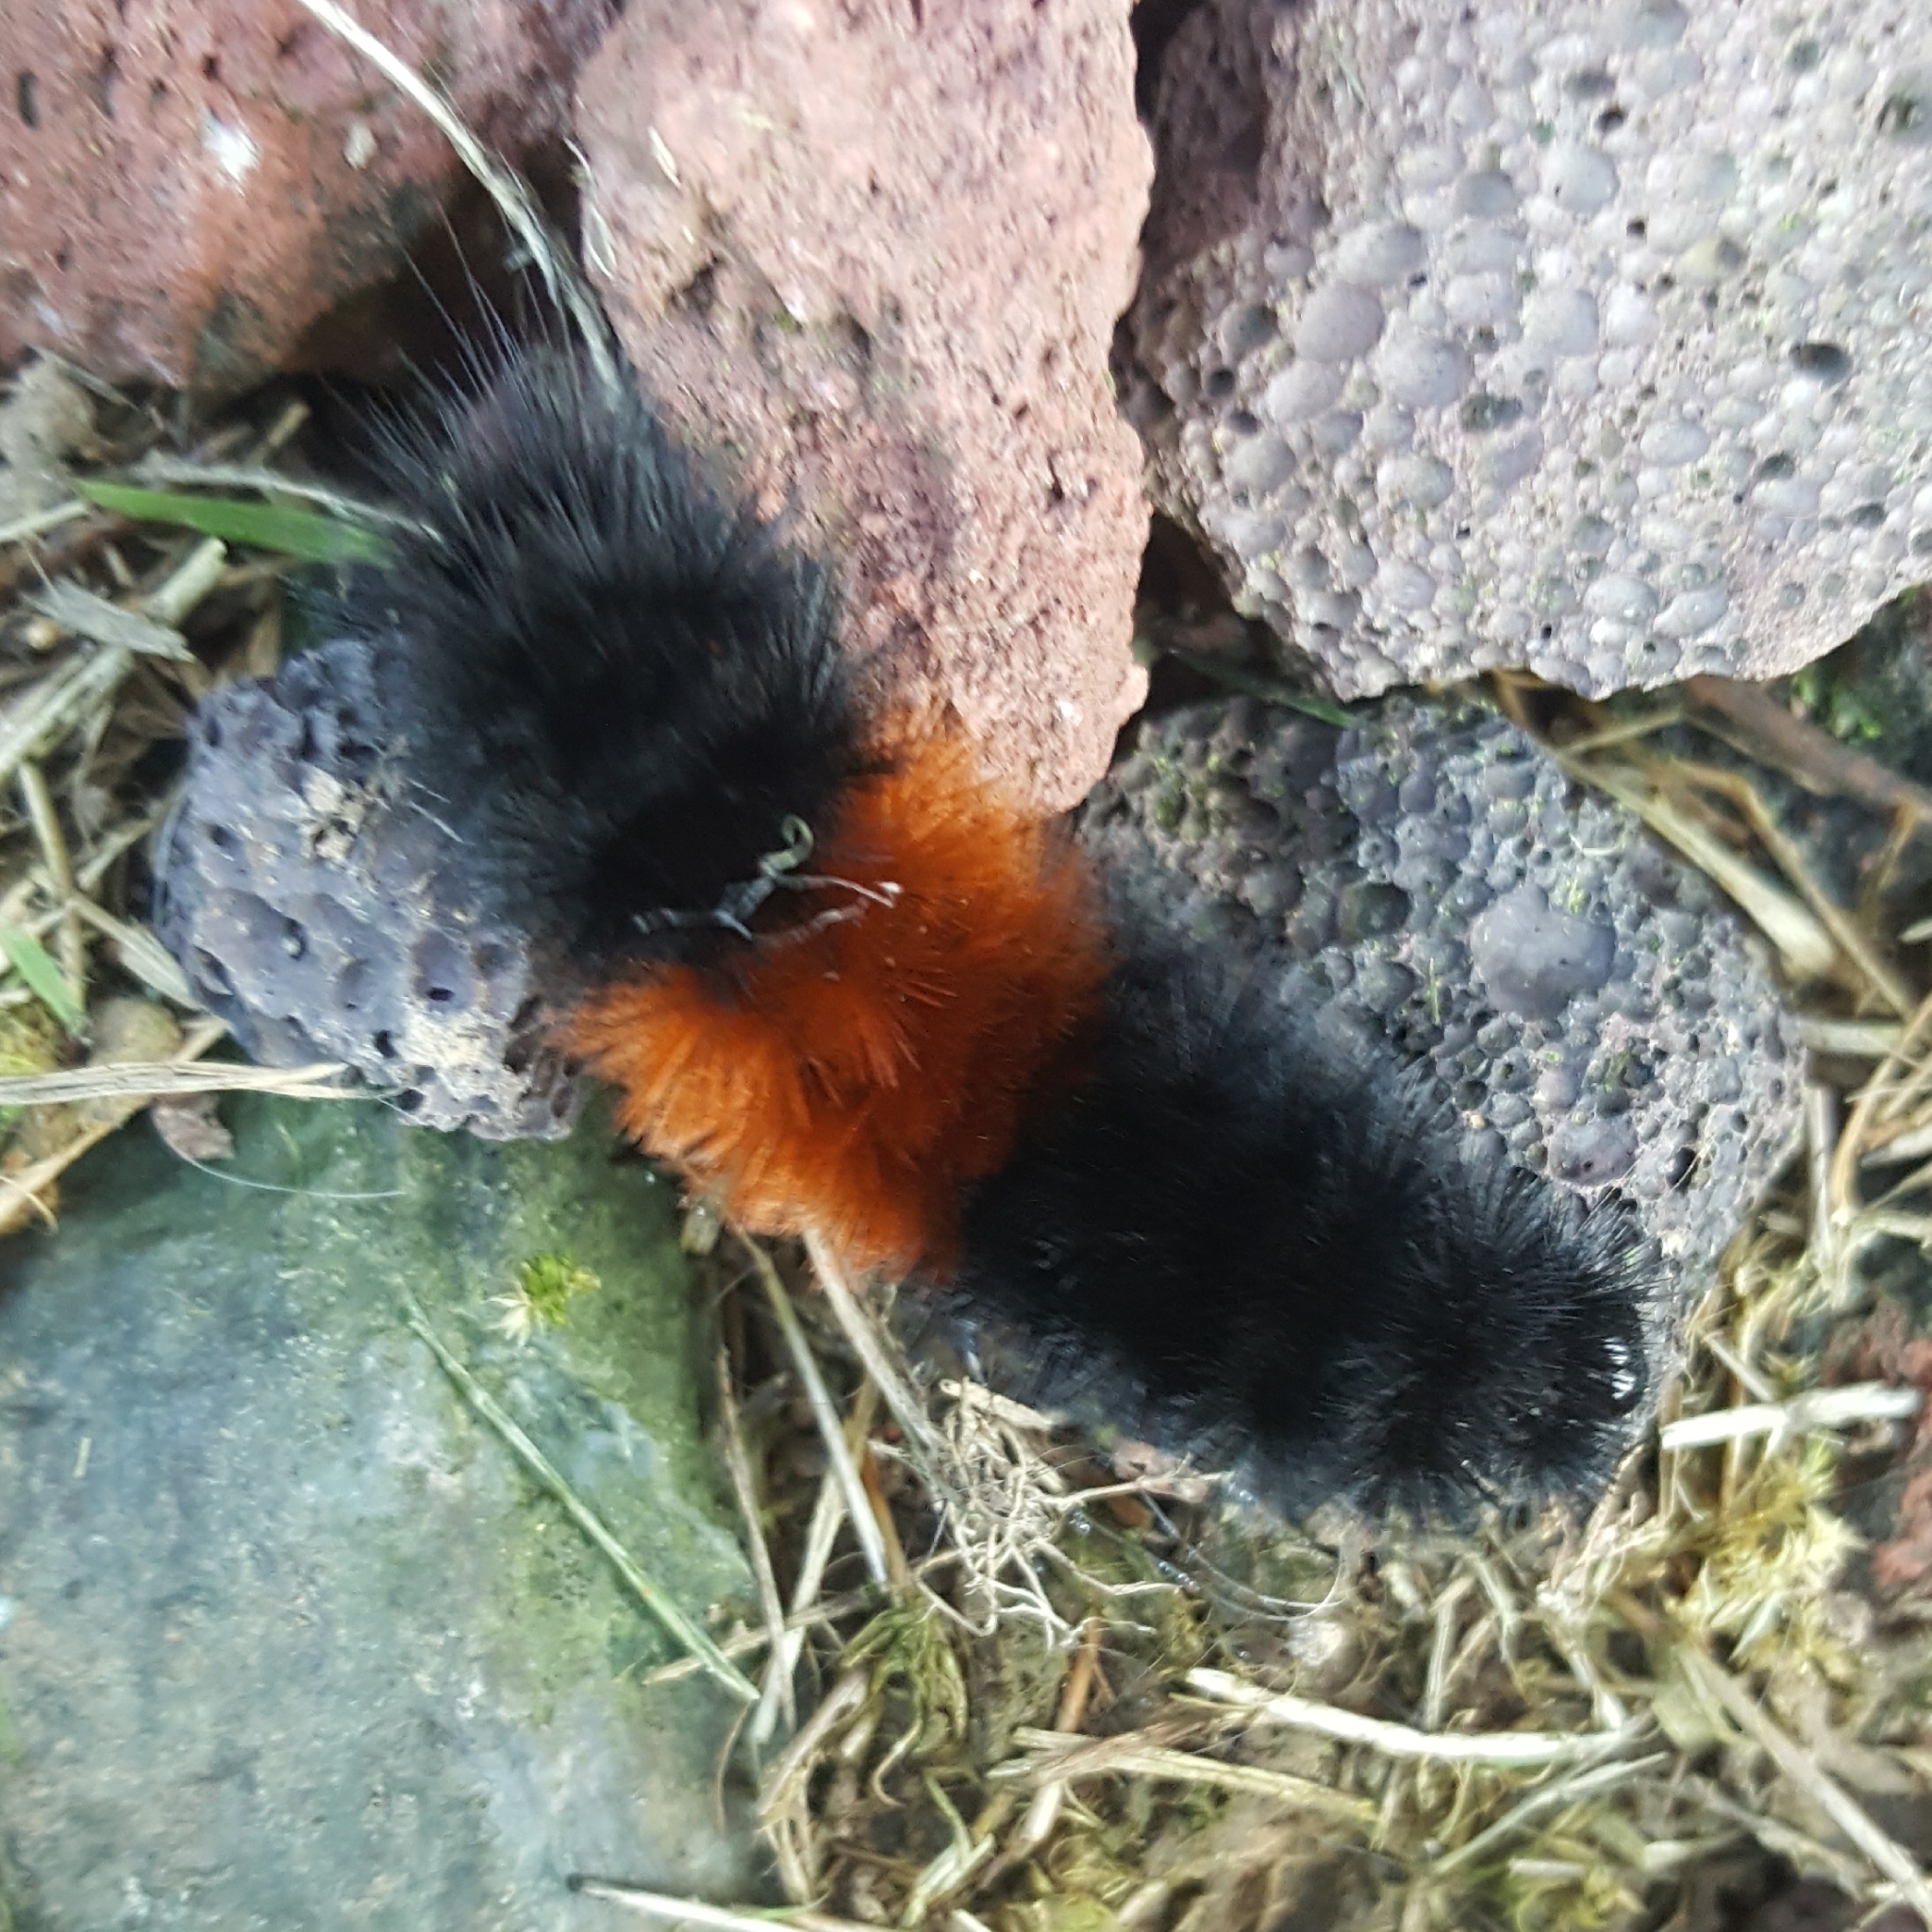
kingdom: Animalia
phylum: Arthropoda
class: Insecta
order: Lepidoptera
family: Erebidae
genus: Pyrrharctia
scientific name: Pyrrharctia isabella
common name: Isabella tiger moth
